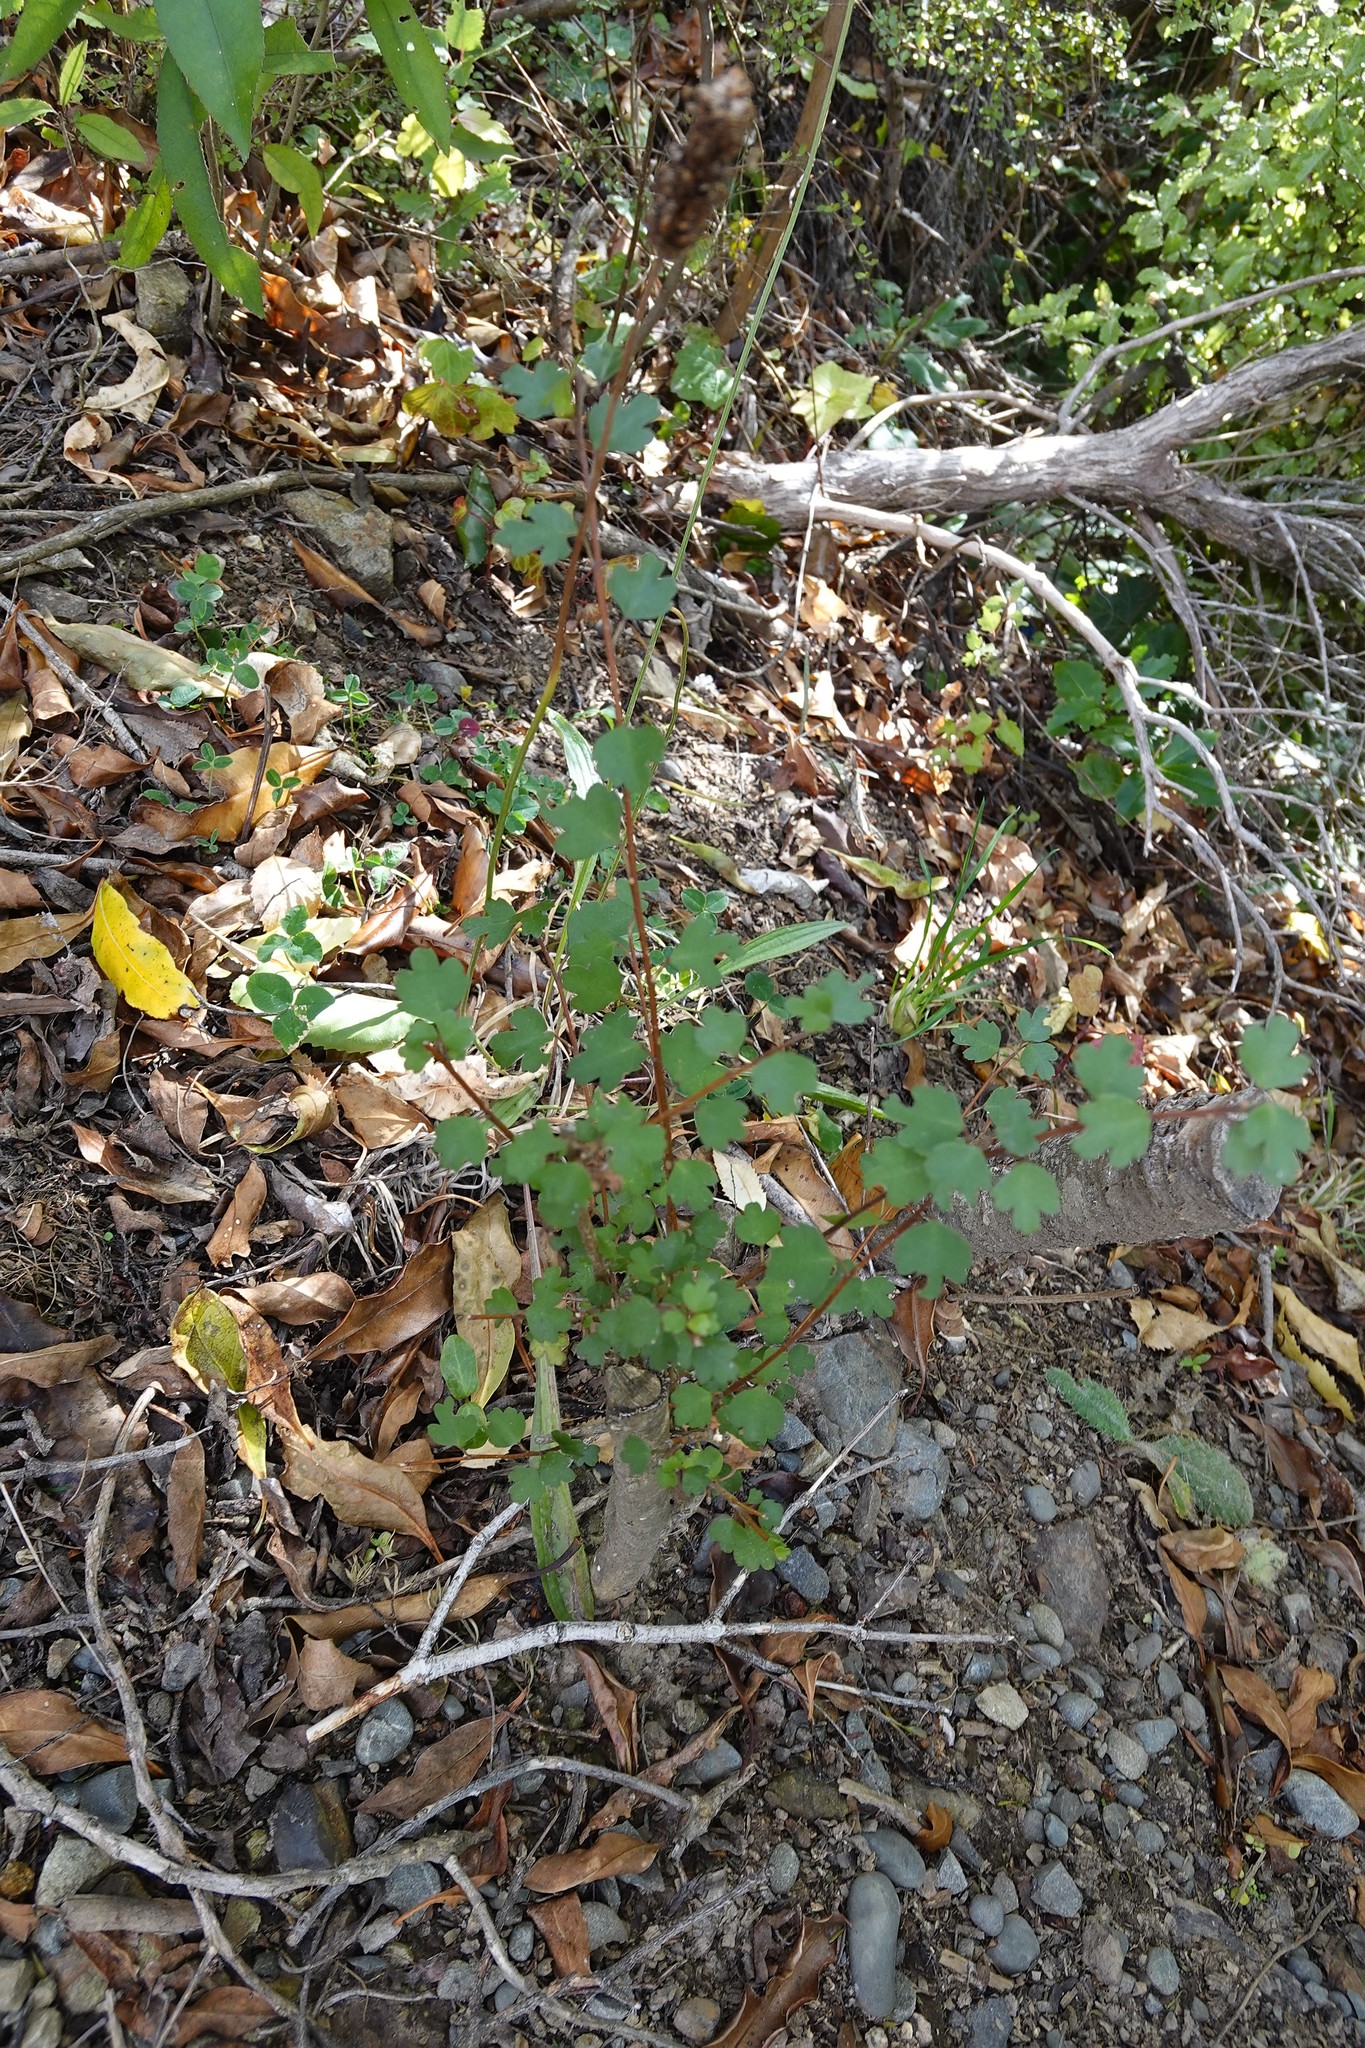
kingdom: Plantae
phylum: Tracheophyta
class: Magnoliopsida
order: Malvales
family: Malvaceae
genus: Plagianthus
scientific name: Plagianthus regius
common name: Manatu
